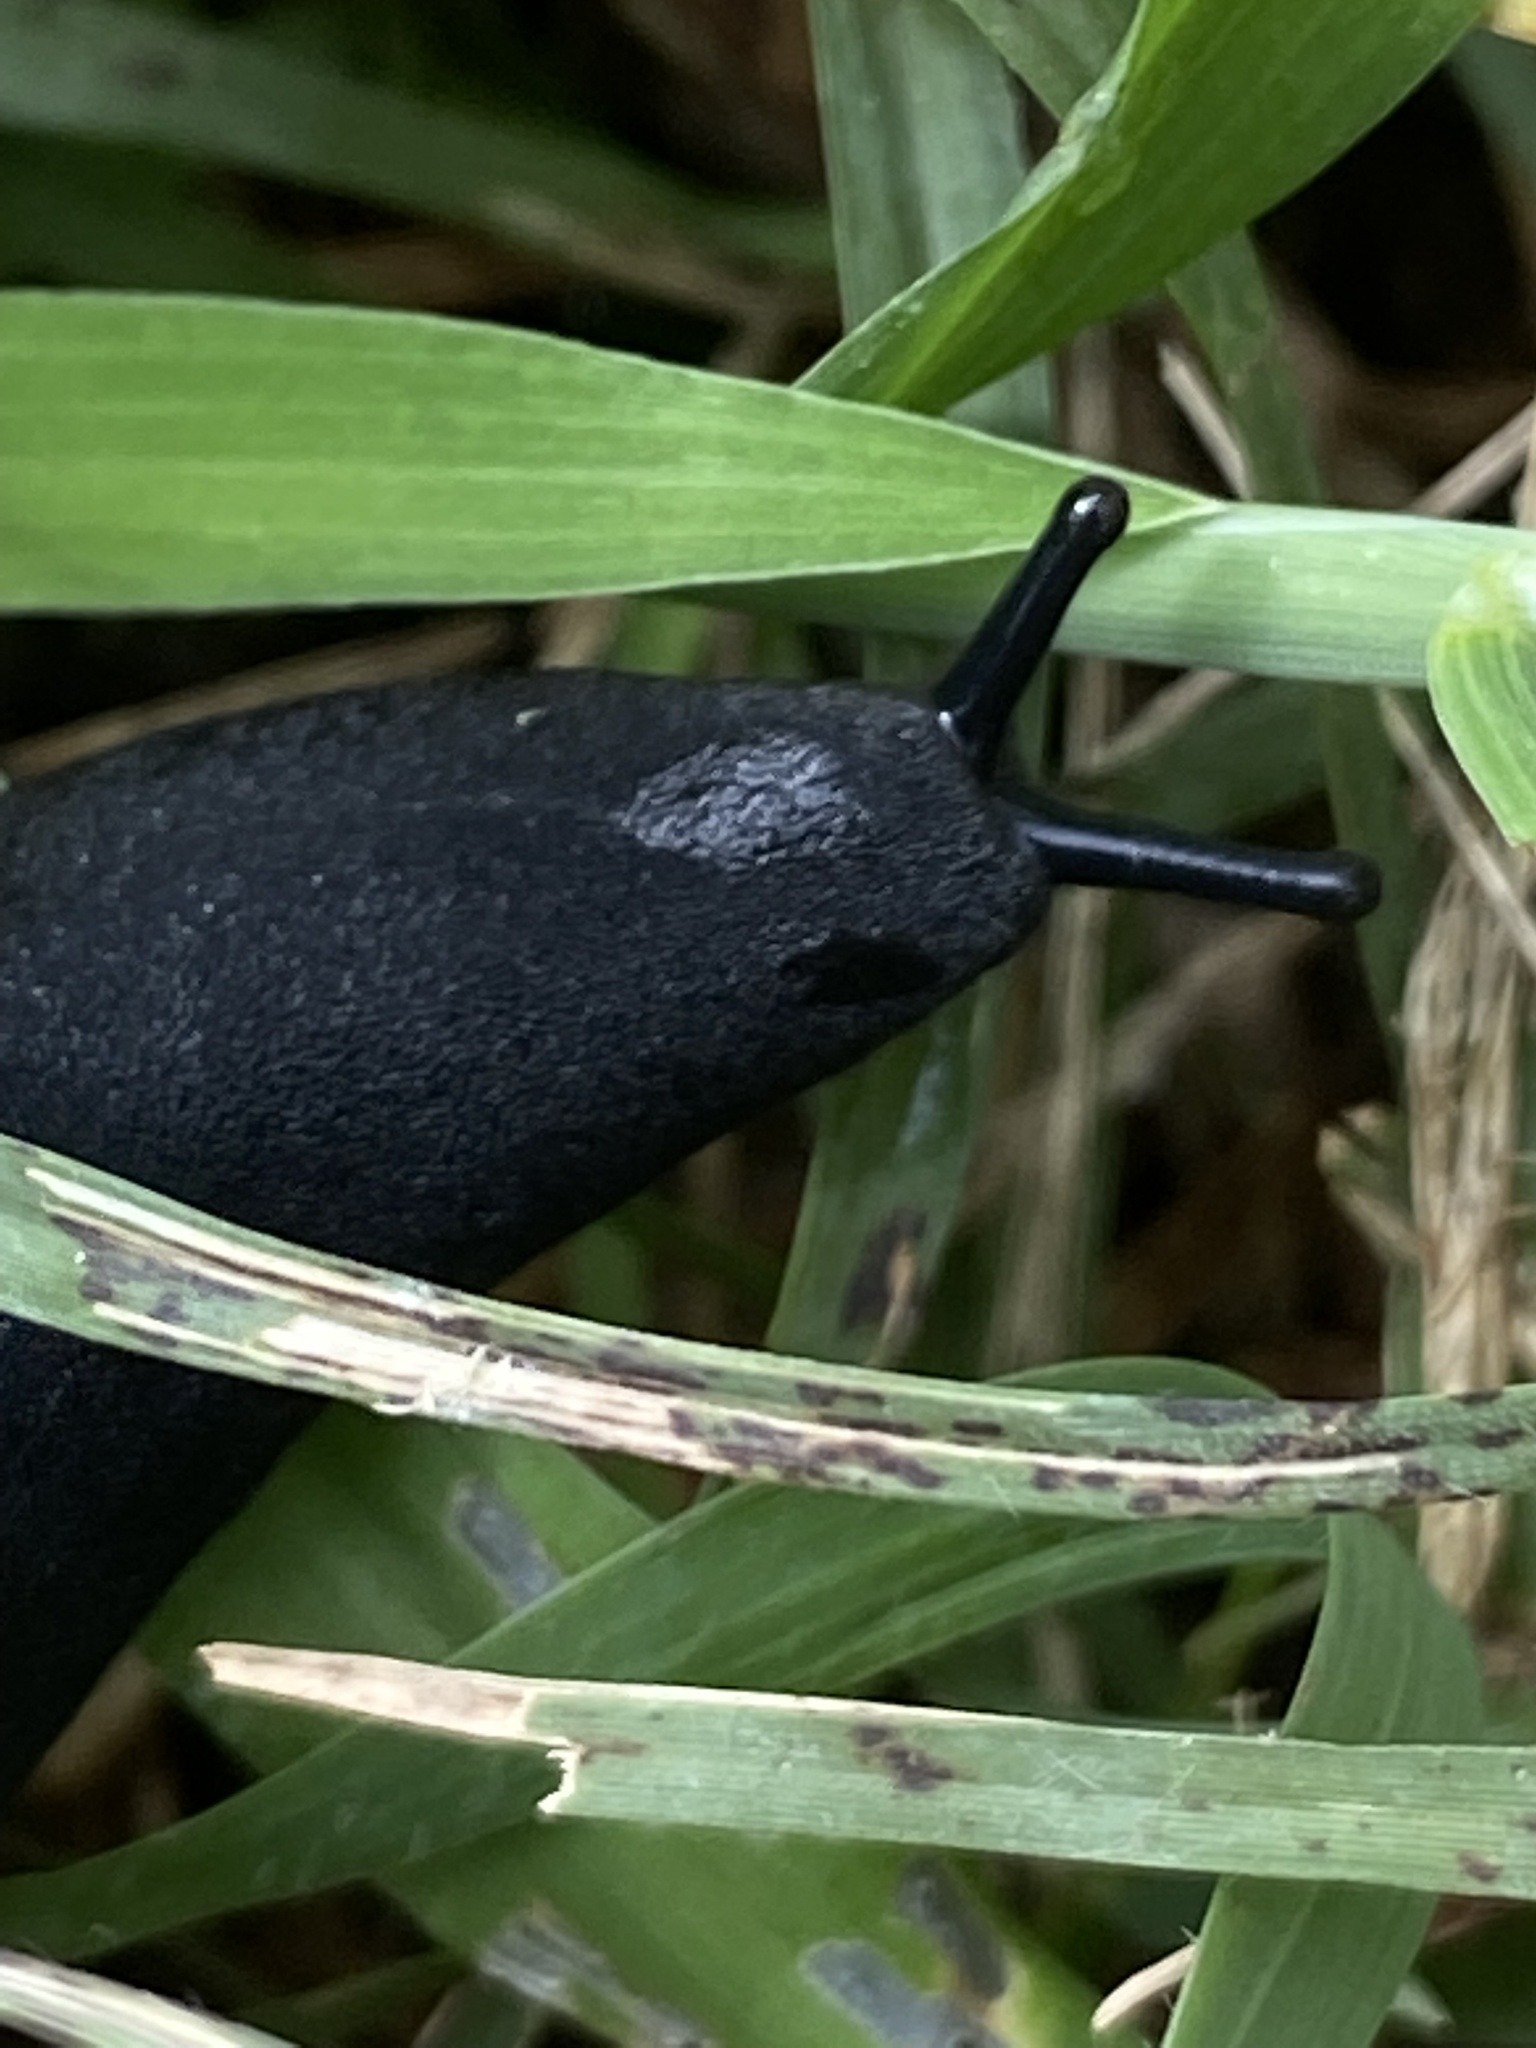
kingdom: Animalia
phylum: Mollusca
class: Gastropoda
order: Systellommatophora
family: Veronicellidae
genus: Belocaulus
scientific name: Belocaulus angustipes
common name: Black velvet leatherleaf slug
